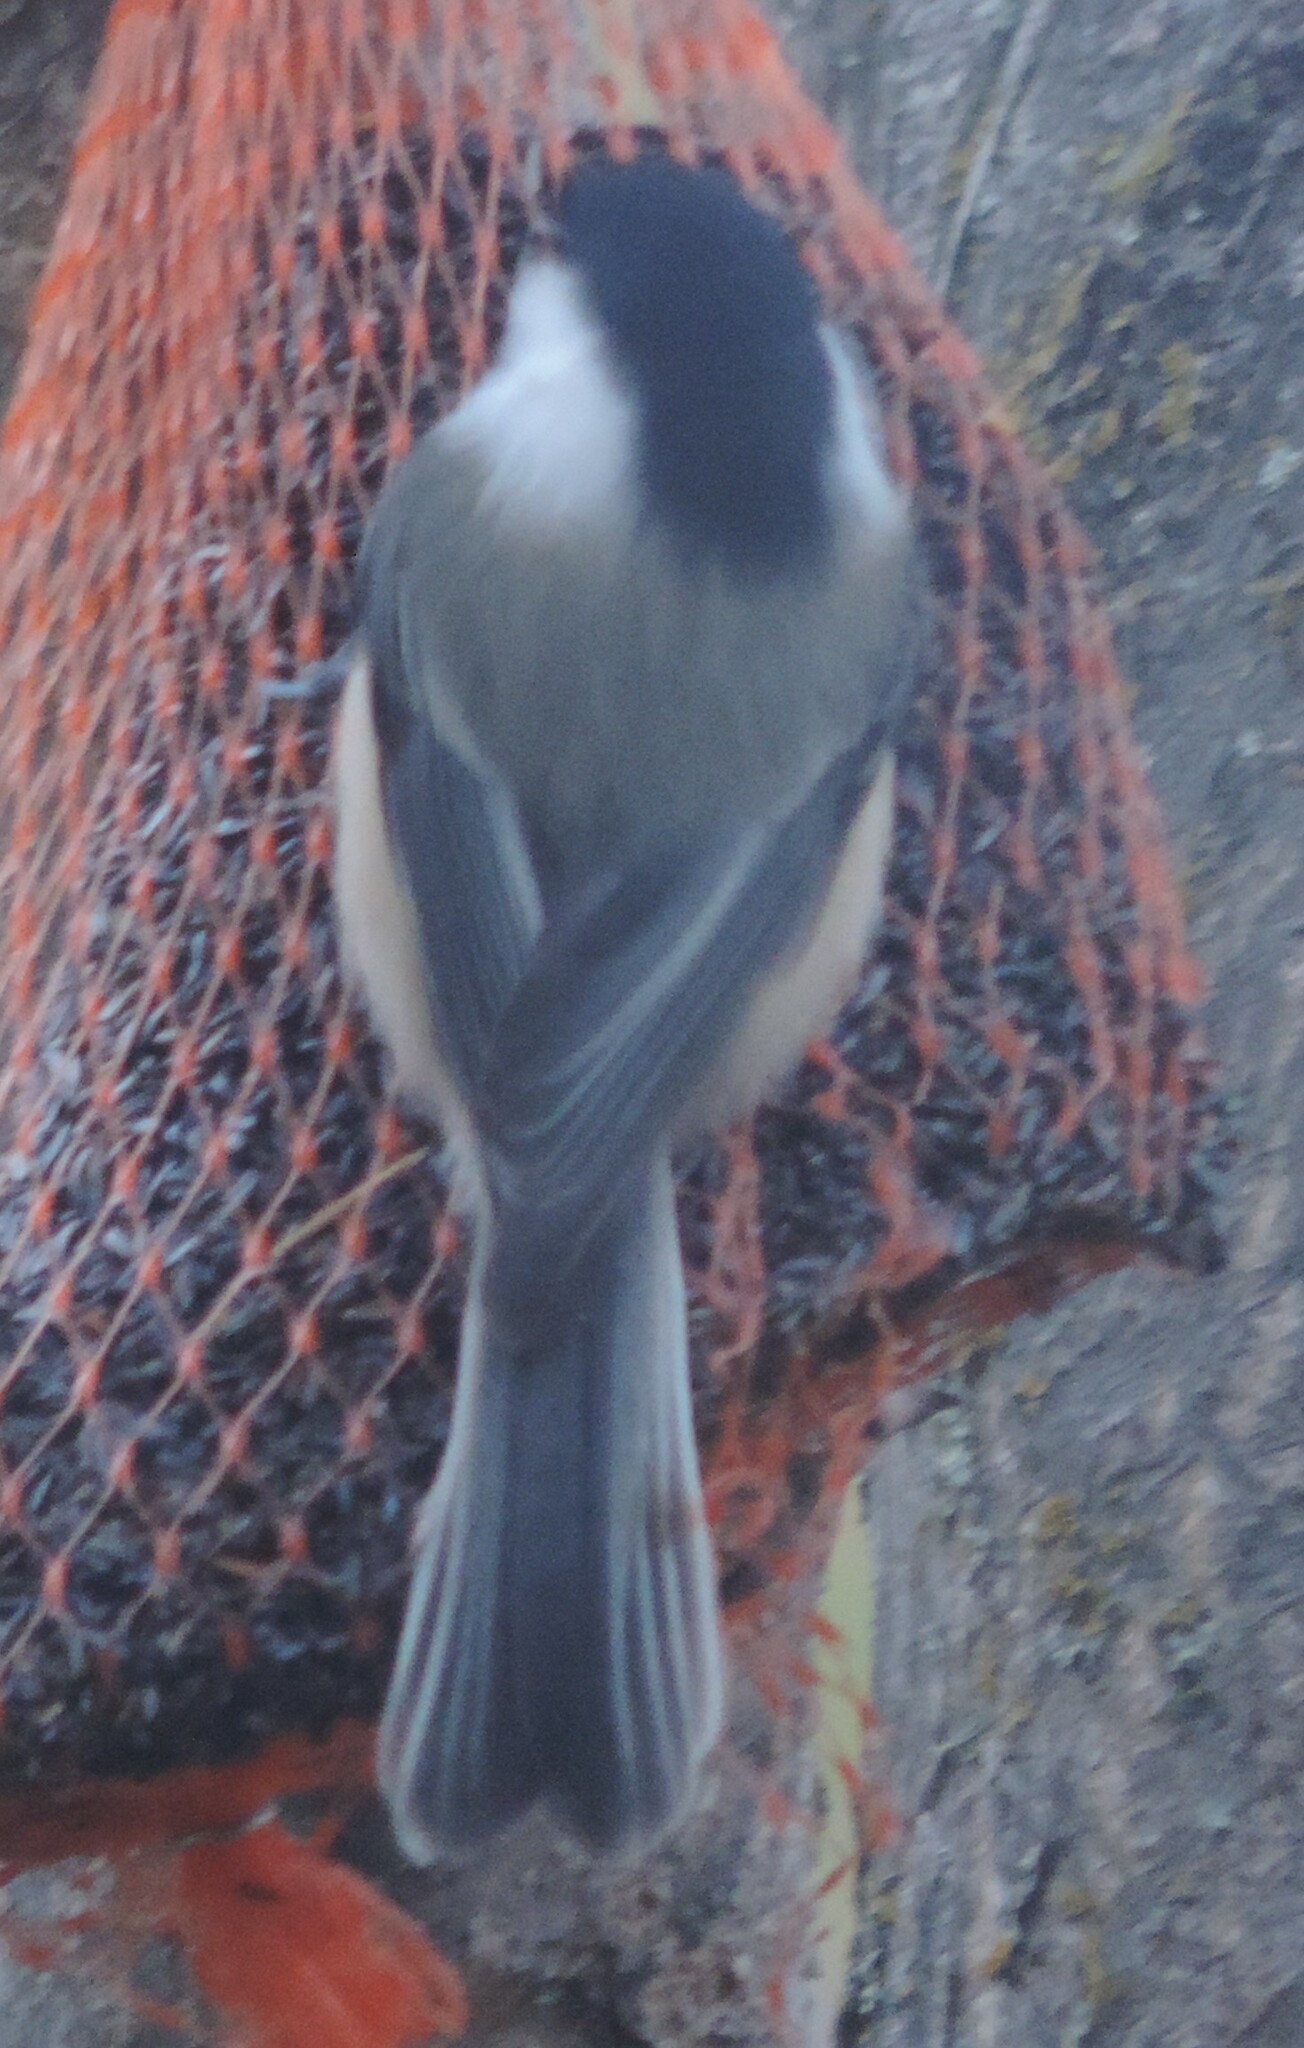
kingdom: Animalia
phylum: Chordata
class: Aves
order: Passeriformes
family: Paridae
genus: Poecile
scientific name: Poecile atricapillus
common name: Black-capped chickadee
